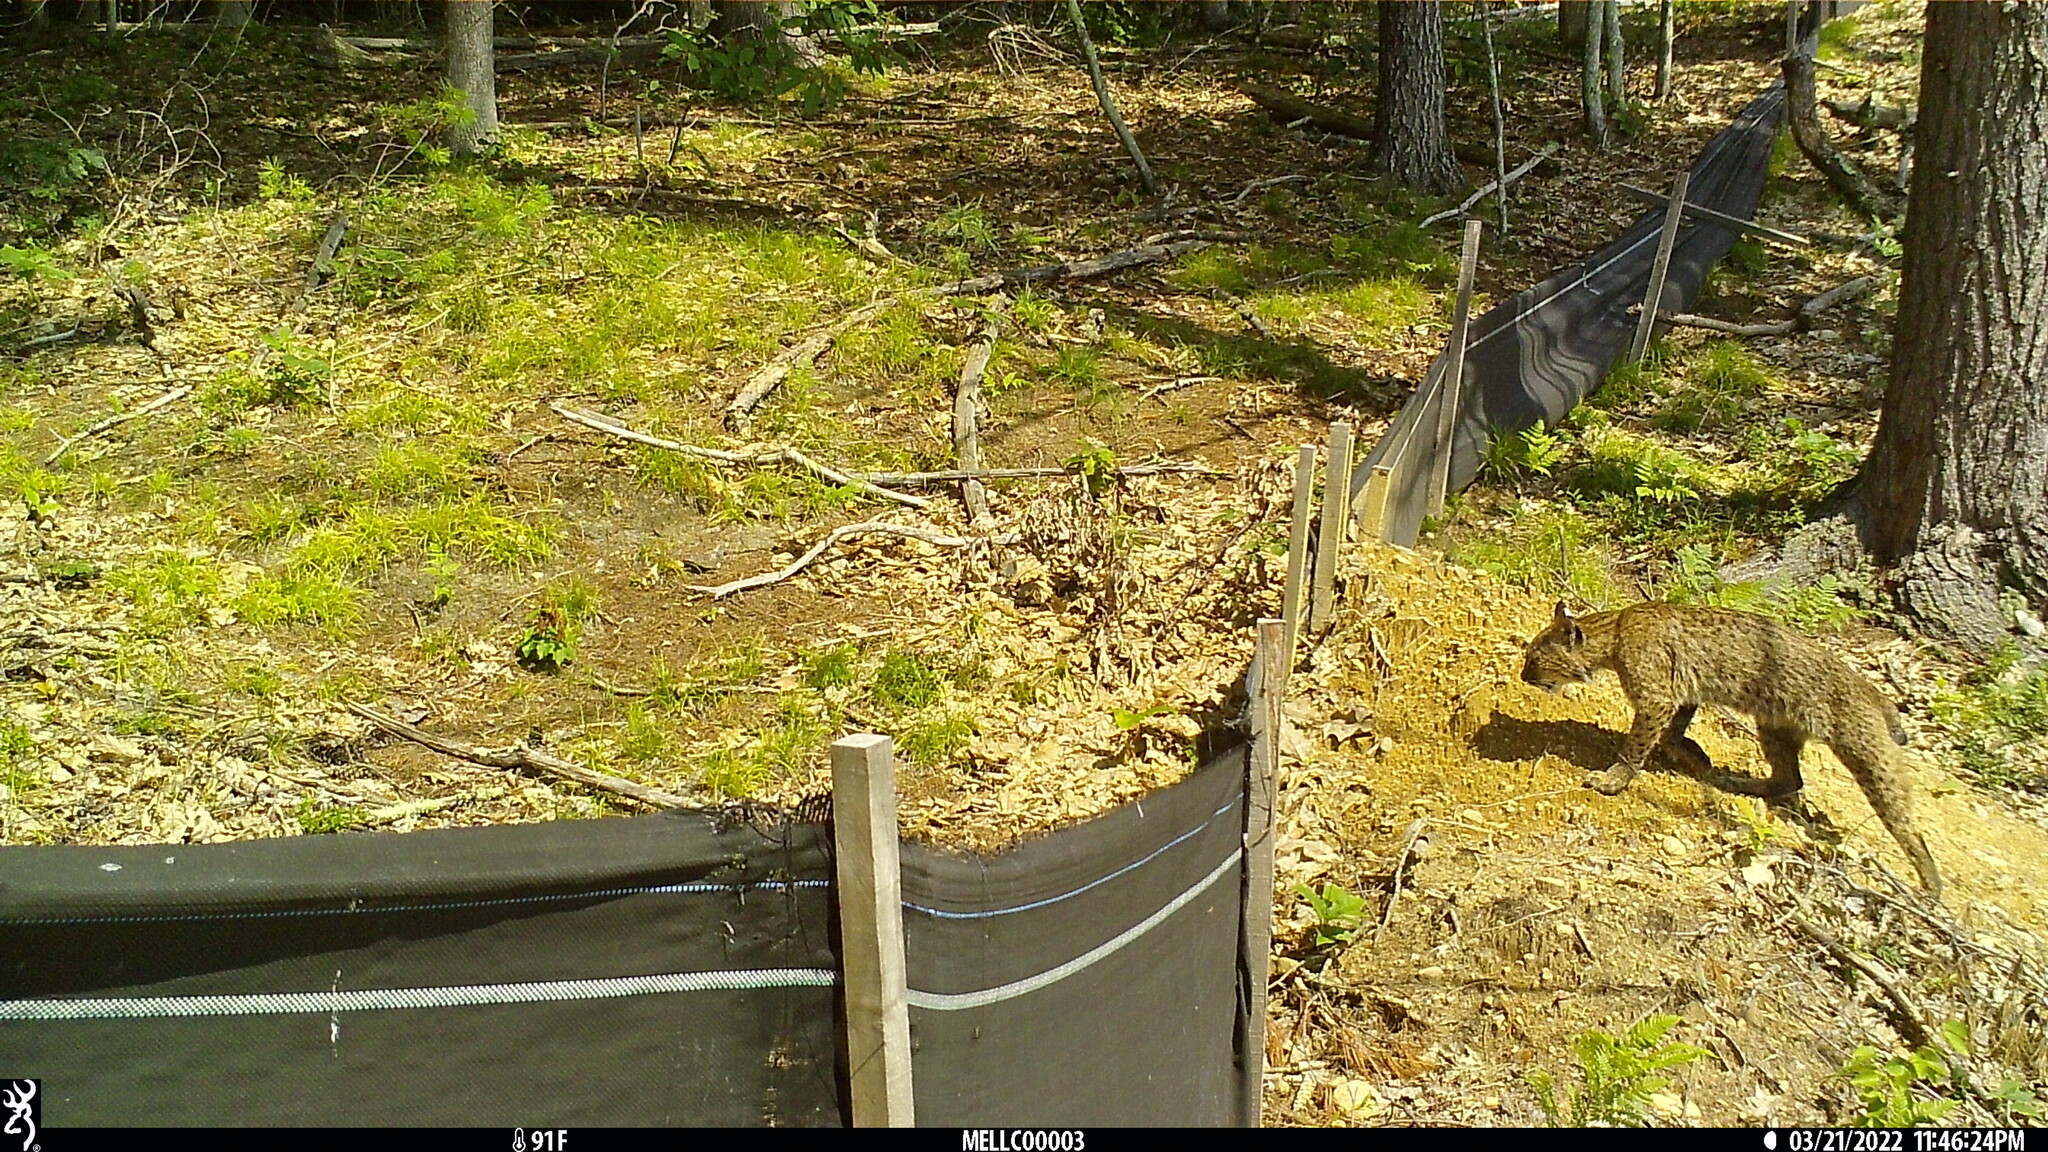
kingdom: Animalia
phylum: Chordata
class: Mammalia
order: Carnivora
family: Felidae
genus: Lynx
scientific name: Lynx rufus
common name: Bobcat
